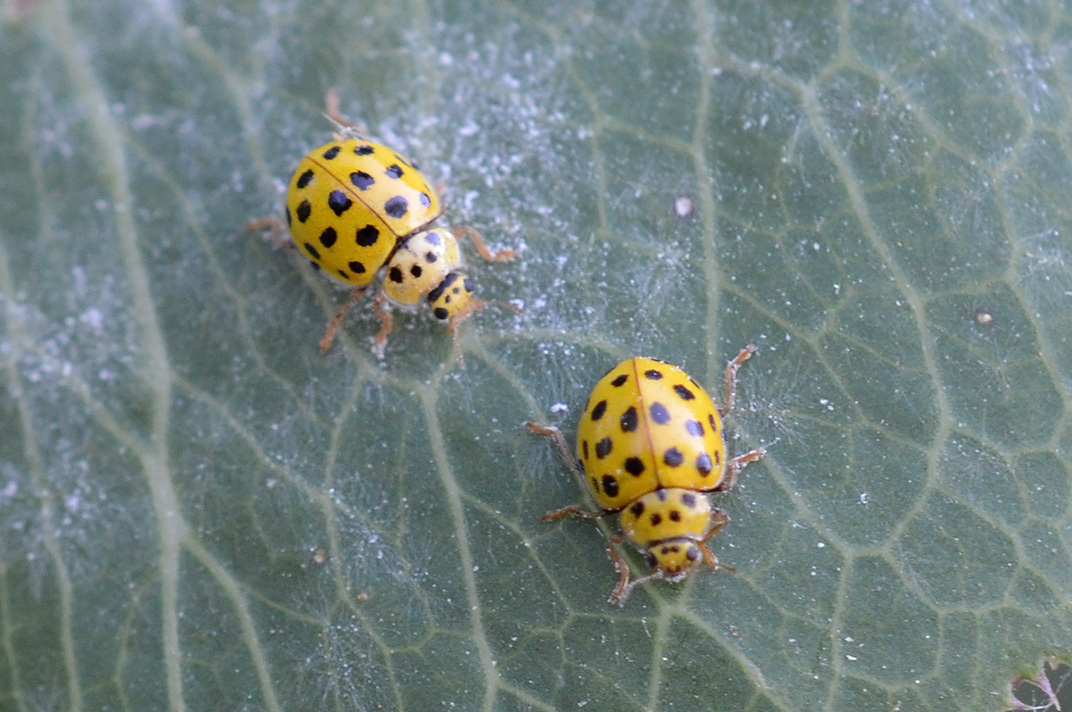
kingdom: Animalia
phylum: Arthropoda
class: Insecta
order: Coleoptera
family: Coccinellidae
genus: Psyllobora
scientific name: Psyllobora vigintiduopunctata
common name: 22-spot ladybird
